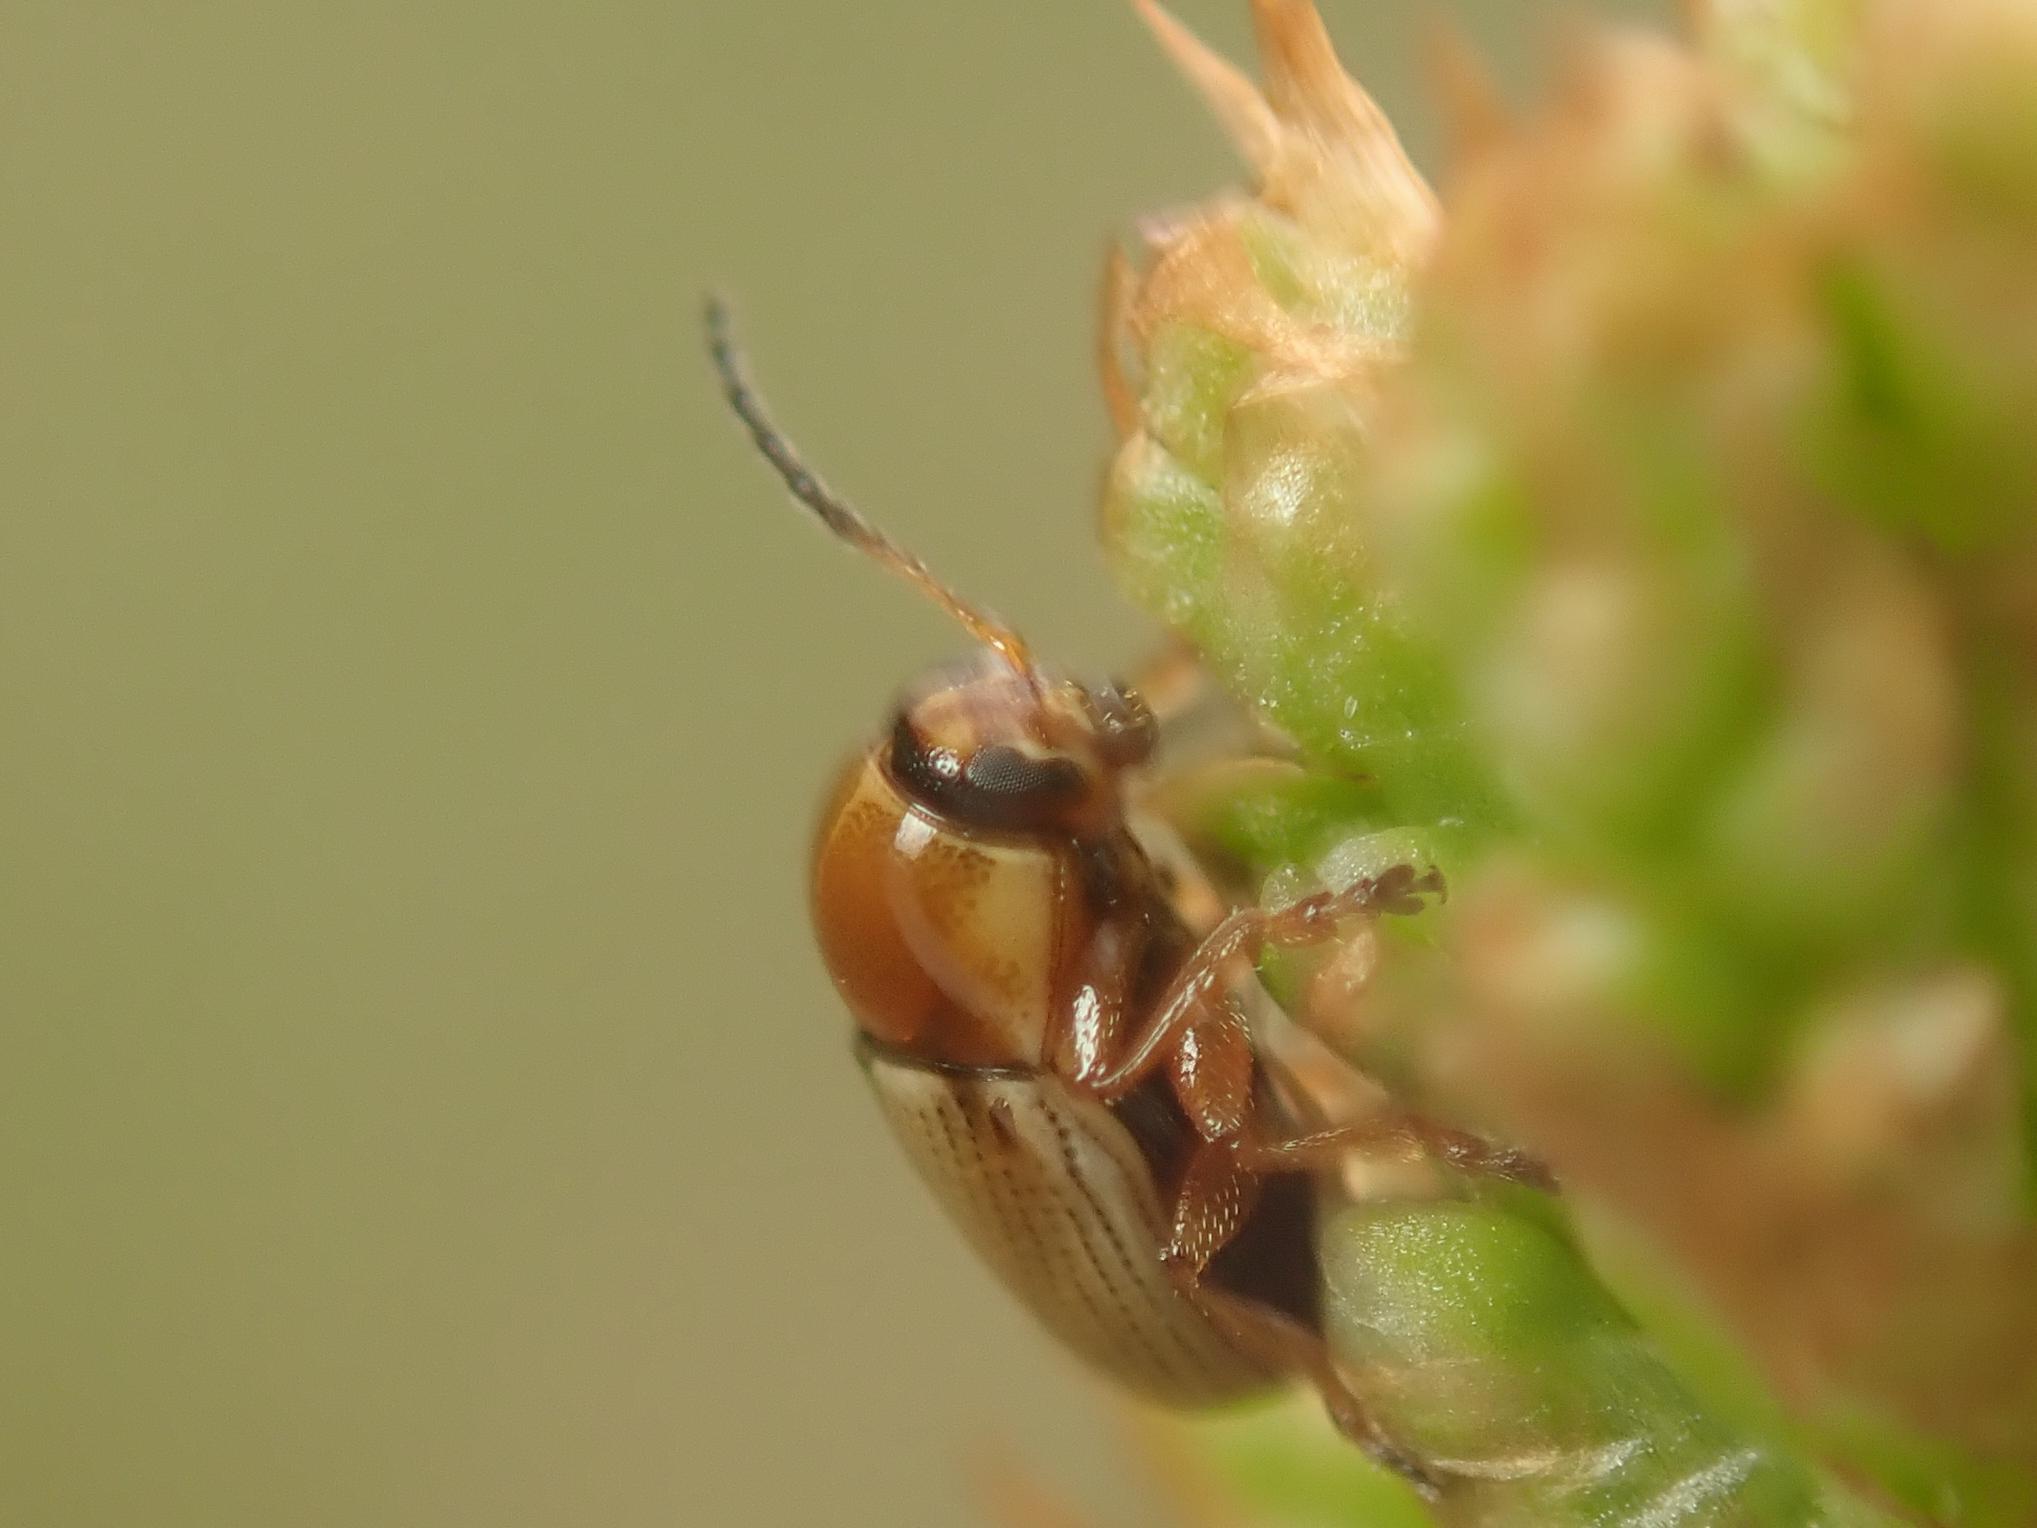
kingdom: Animalia
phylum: Arthropoda
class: Insecta
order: Coleoptera
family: Chrysomelidae
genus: Cryptocephalus
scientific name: Cryptocephalus fulvus
